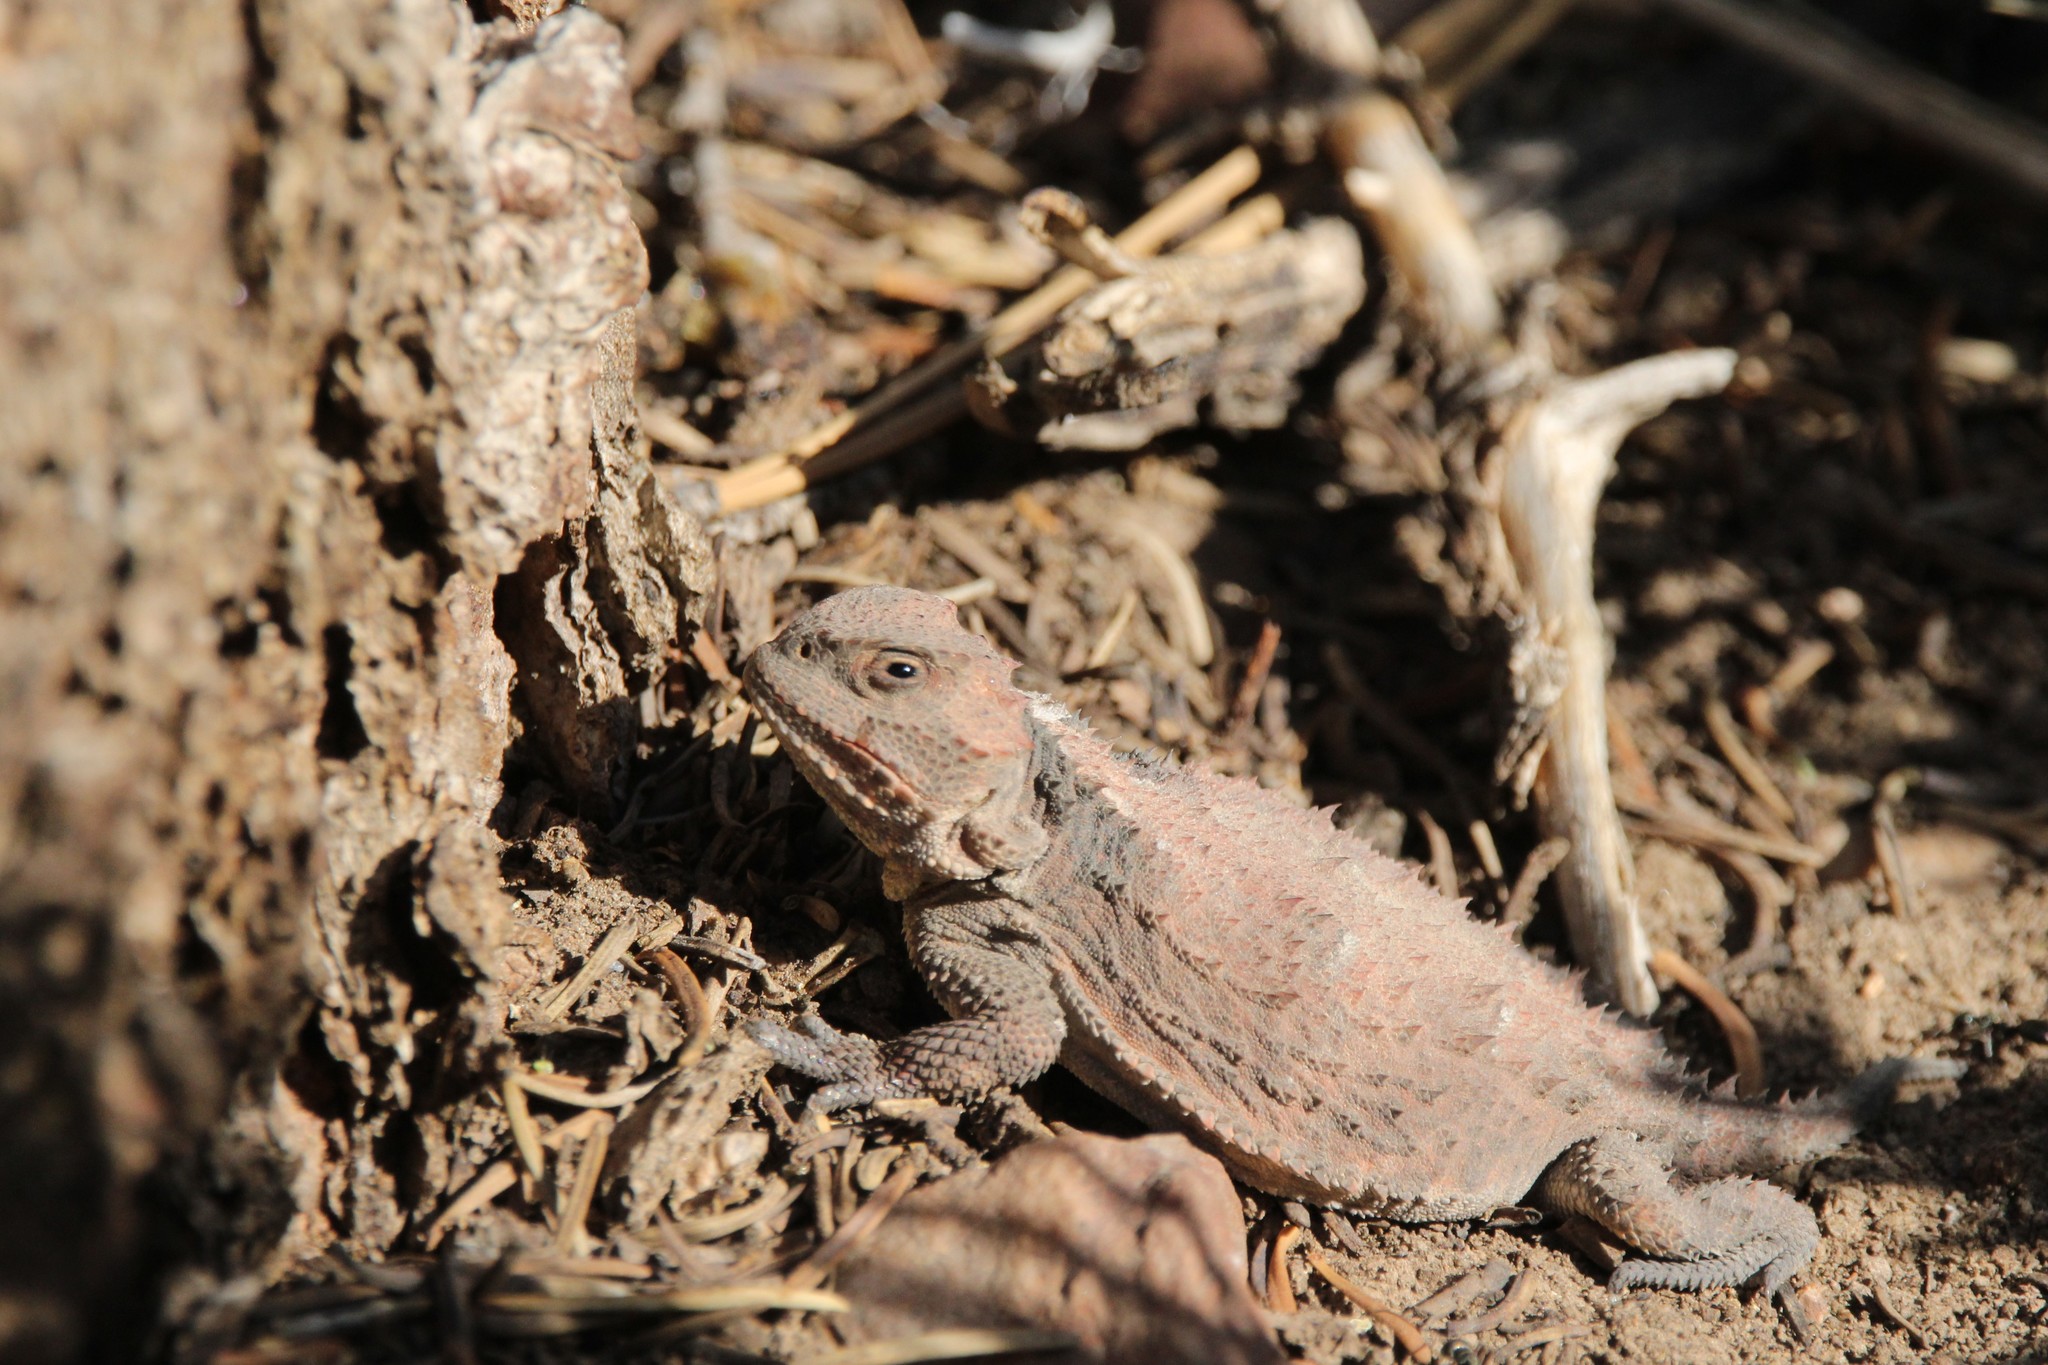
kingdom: Animalia
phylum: Chordata
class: Squamata
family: Phrynosomatidae
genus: Phrynosoma
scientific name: Phrynosoma hernandesi
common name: Greater short-horned lizard
